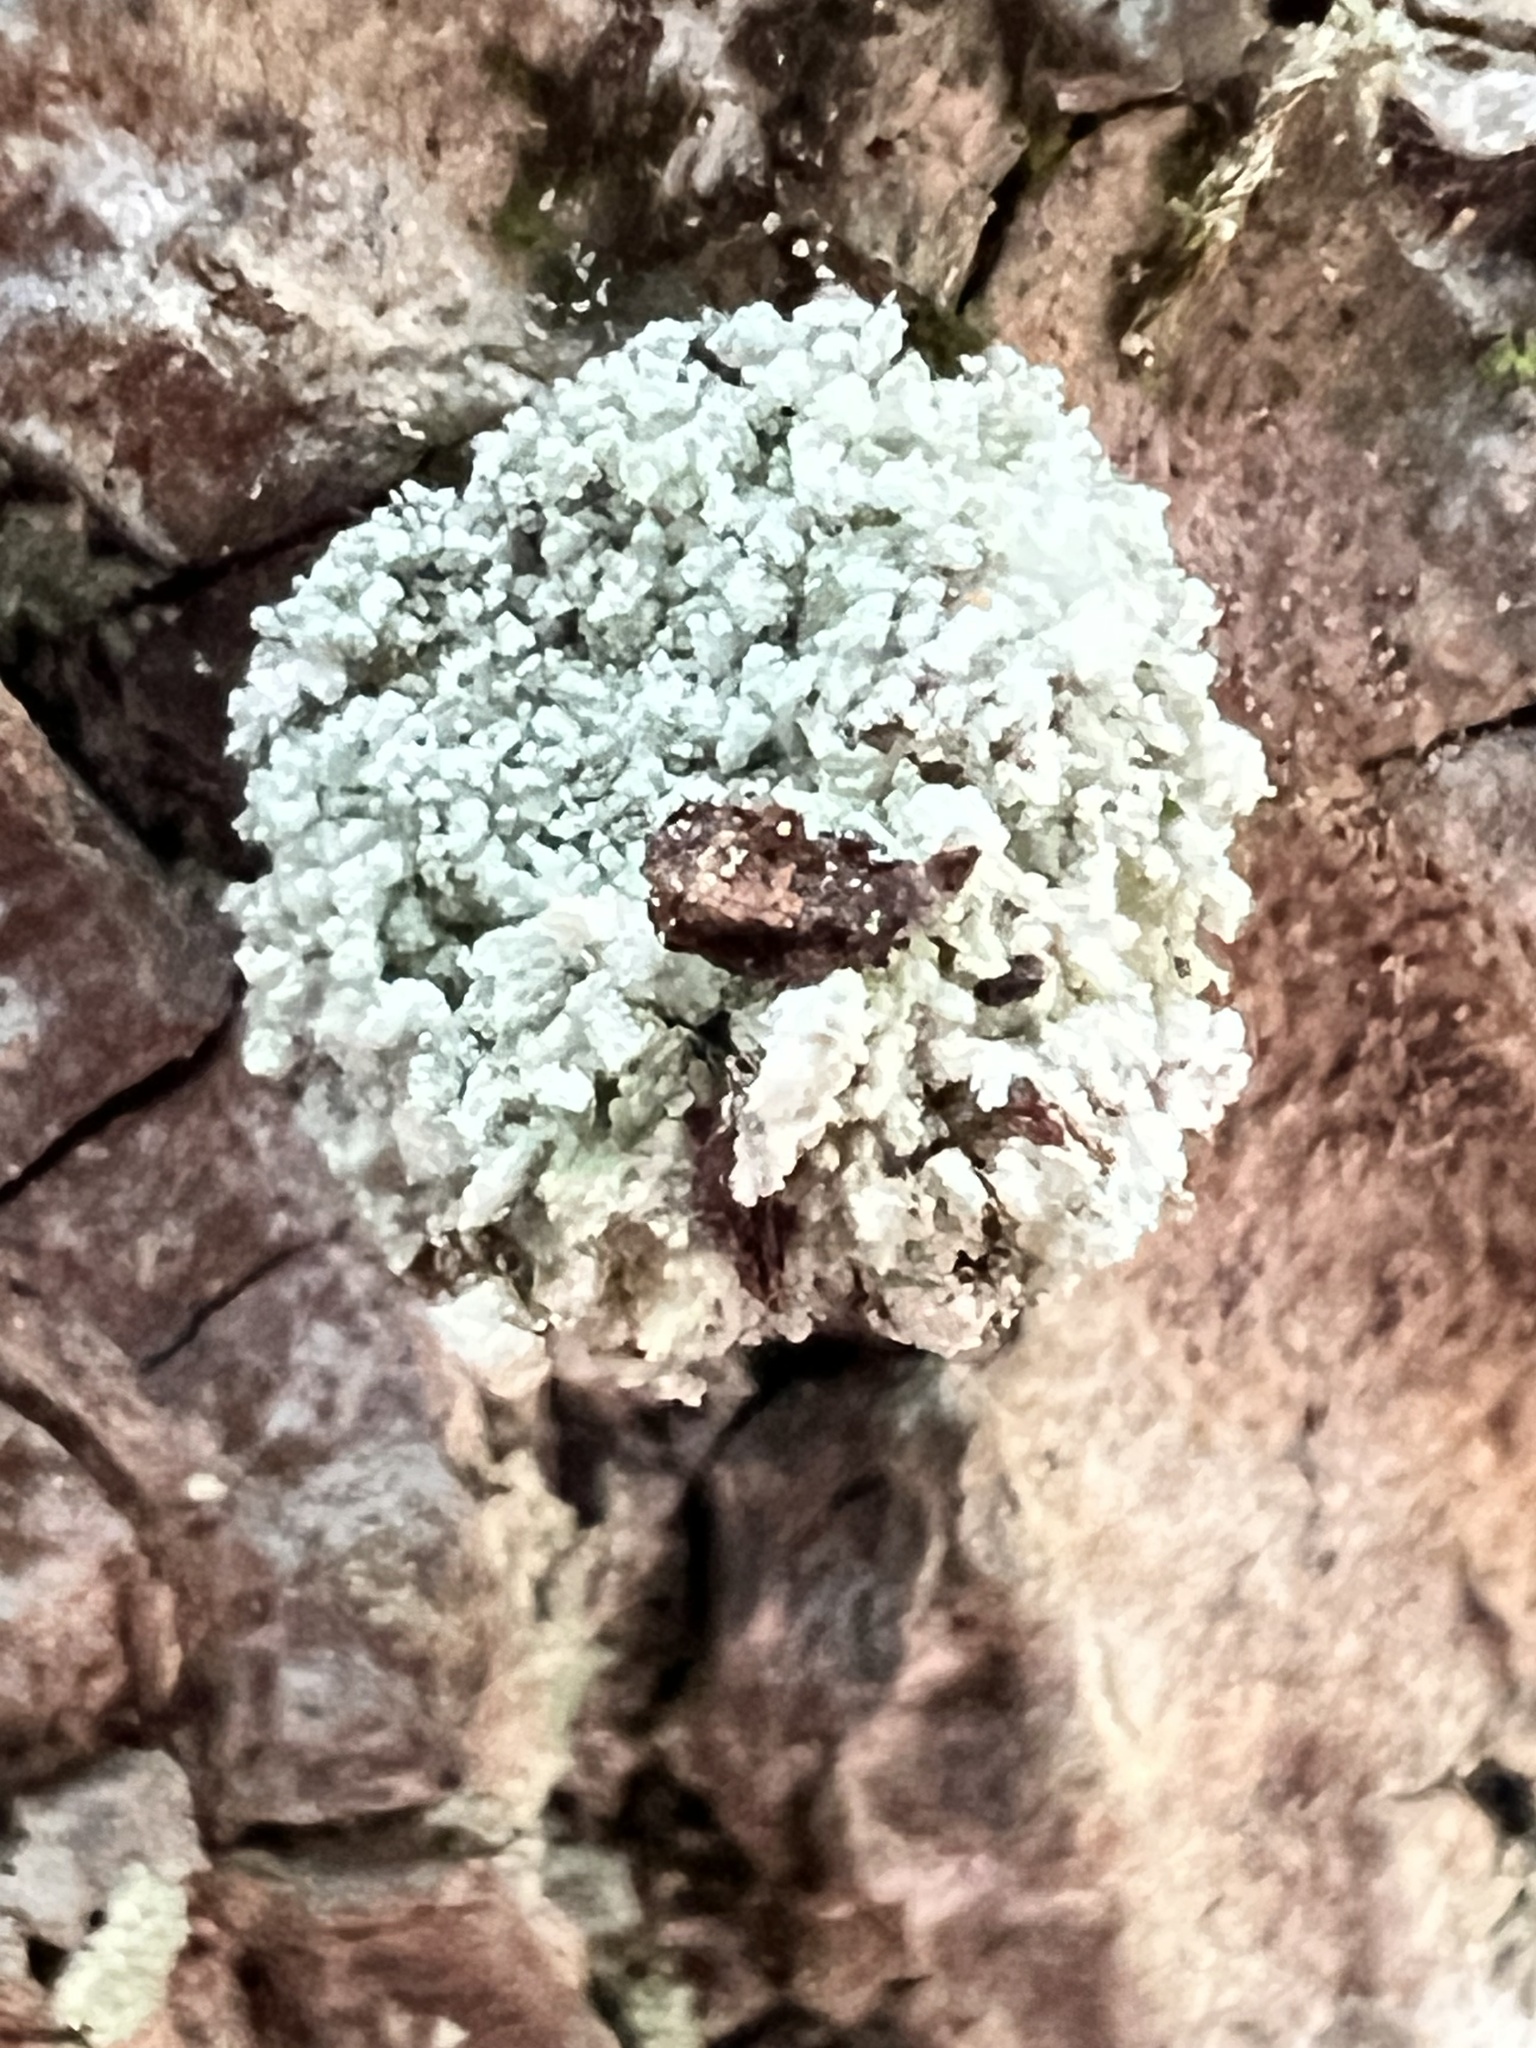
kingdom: Animalia
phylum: Arthropoda
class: Insecta
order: Neuroptera
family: Chrysopidae
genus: Leucochrysa
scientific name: Leucochrysa pavida
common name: Lichen-carrying green lacewing
